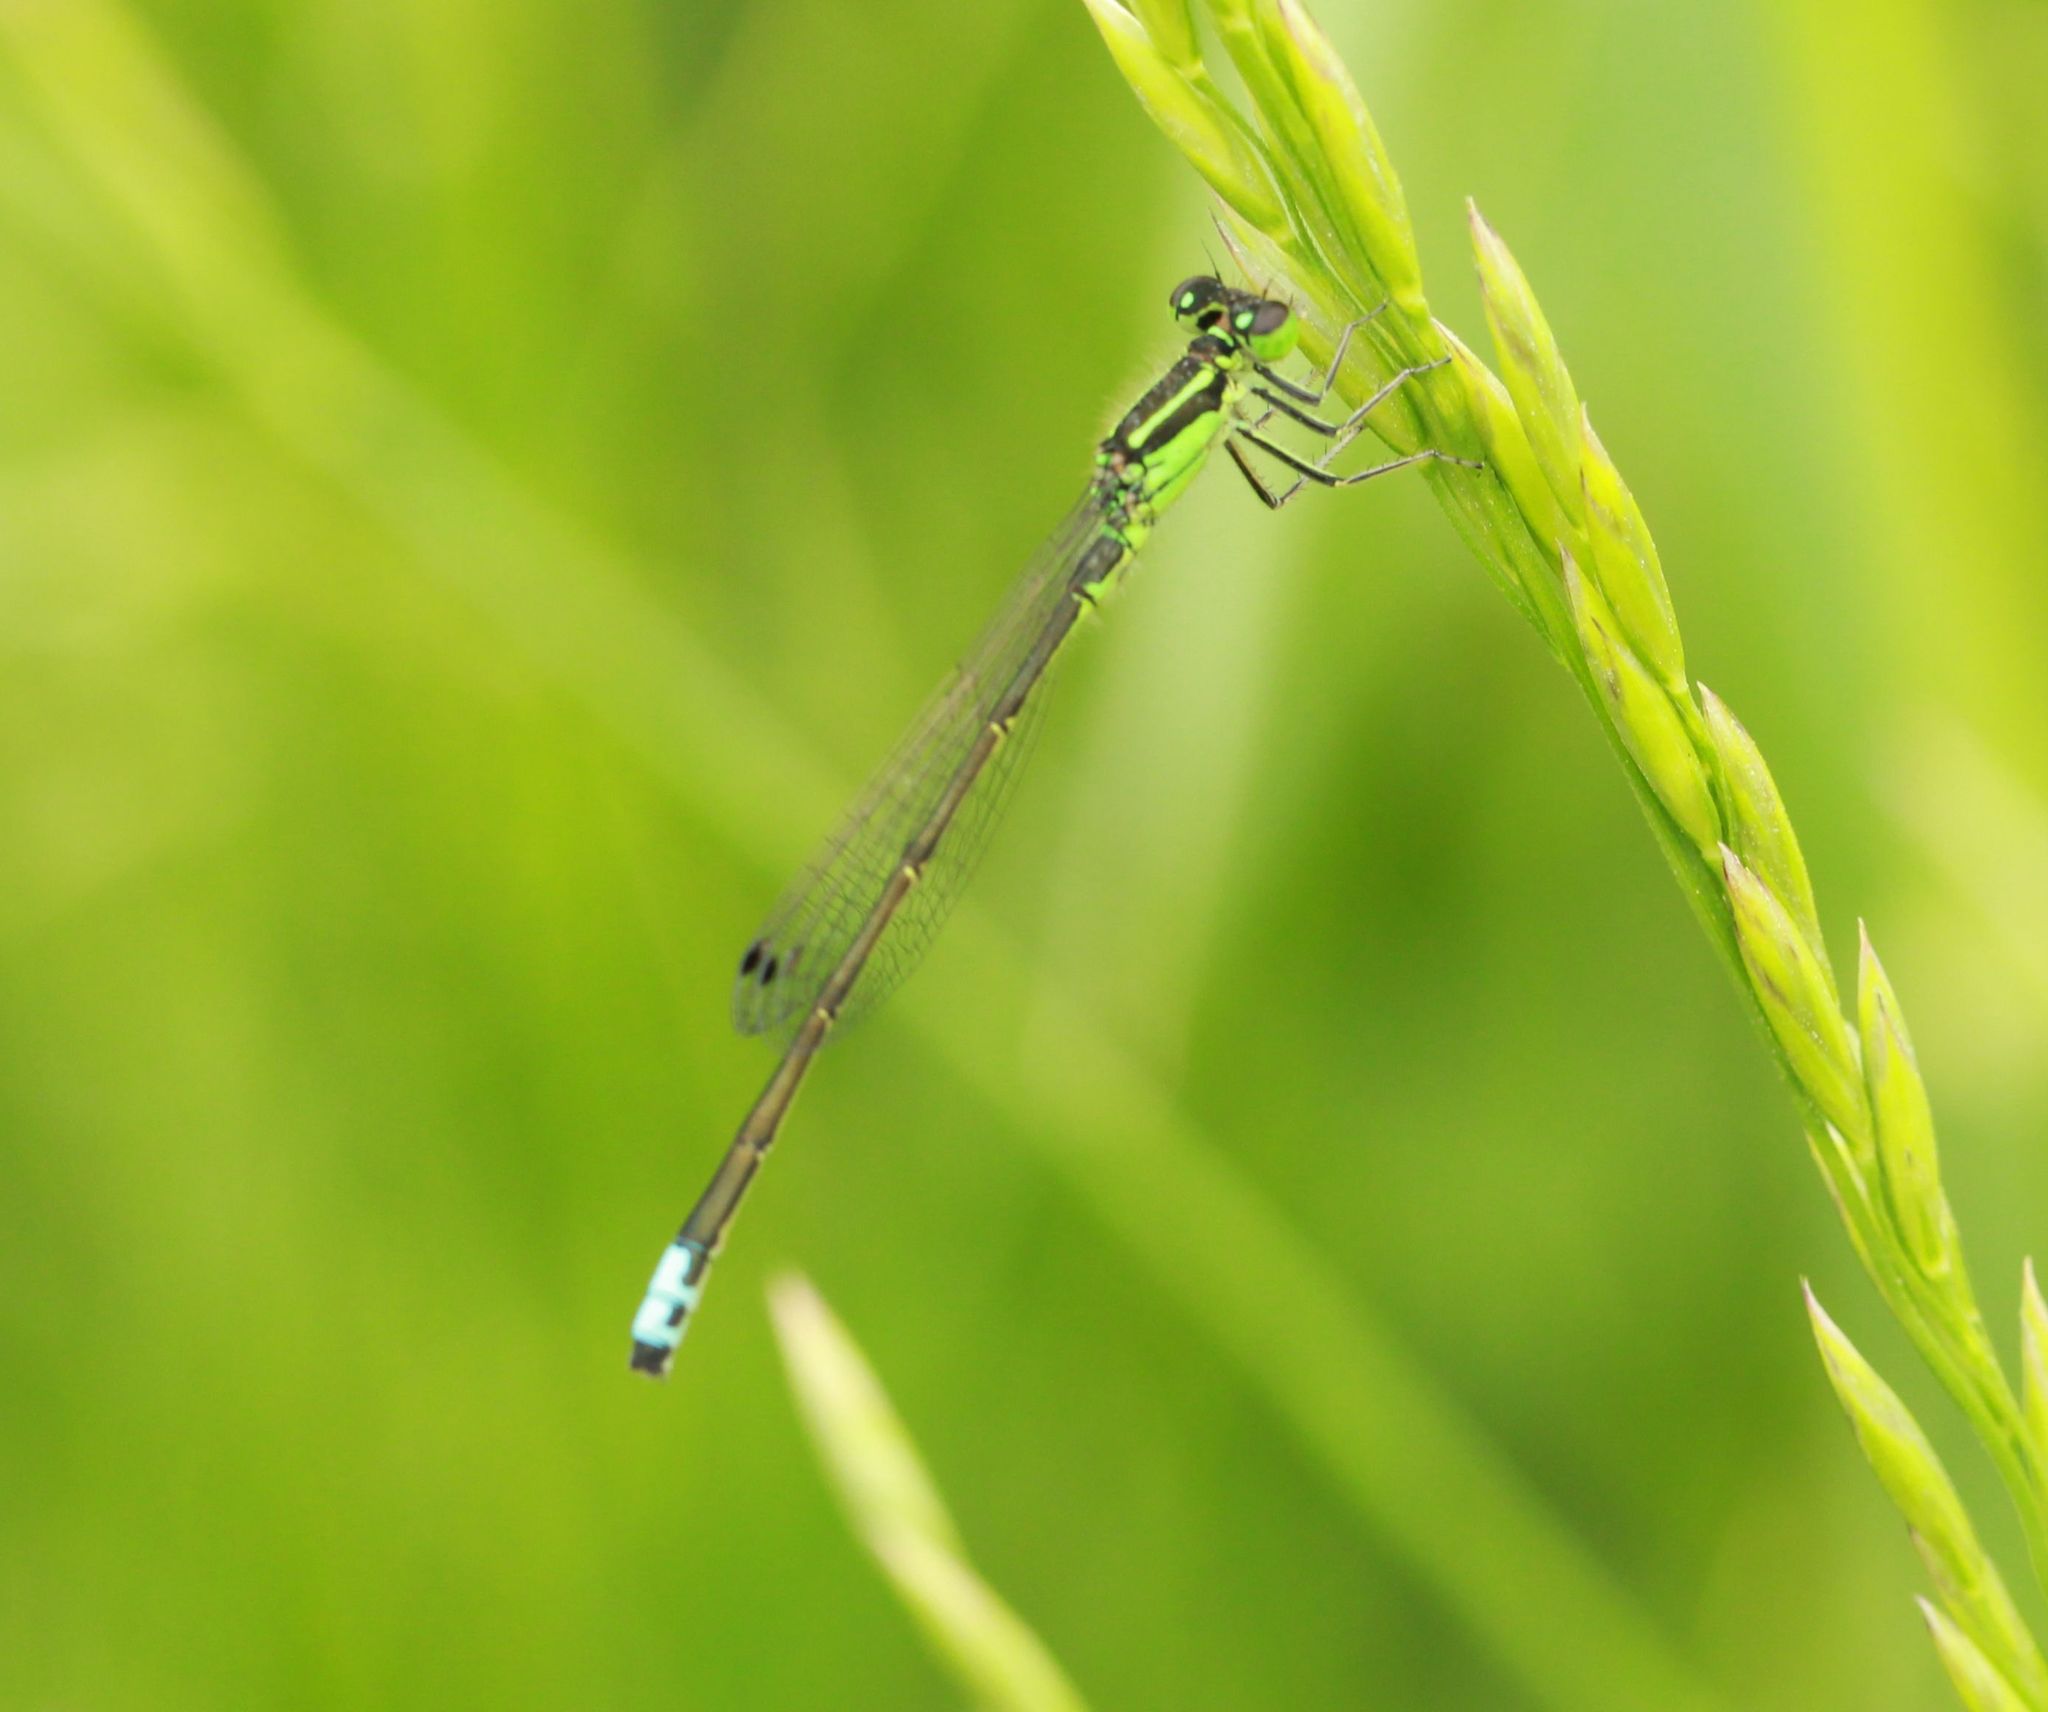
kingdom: Animalia
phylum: Arthropoda
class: Insecta
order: Odonata
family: Coenagrionidae
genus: Ischnura
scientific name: Ischnura verticalis
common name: Eastern forktail
